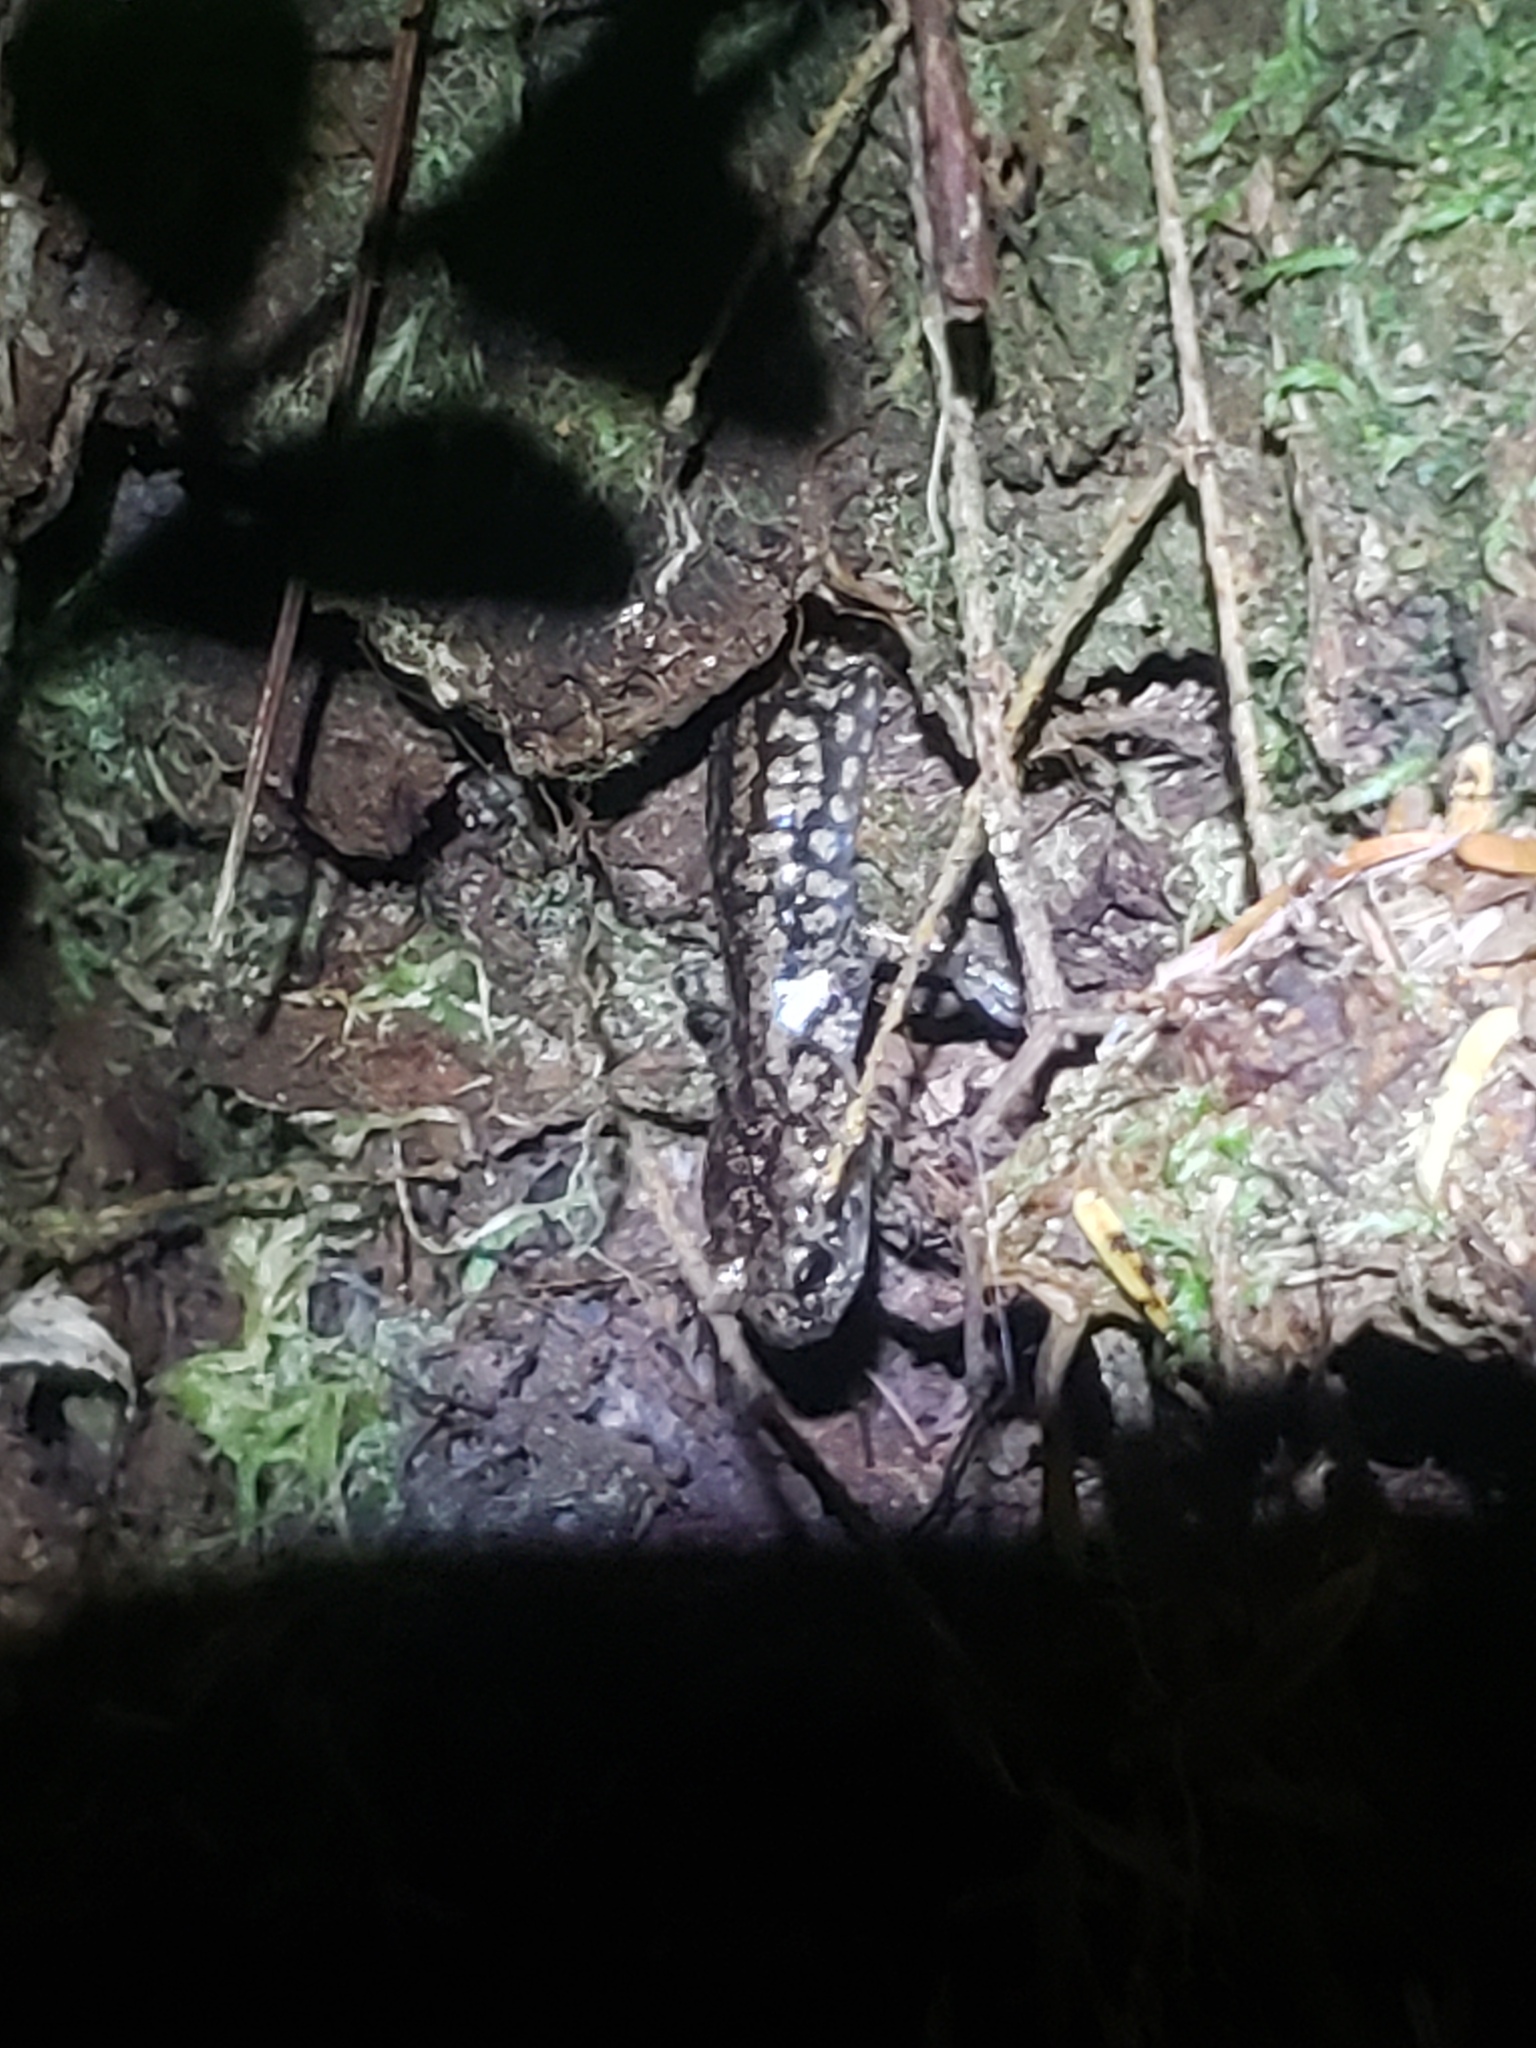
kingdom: Animalia
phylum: Chordata
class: Amphibia
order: Caudata
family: Plethodontidae
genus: Aneides
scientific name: Aneides vagrans
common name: Wandering salamander
